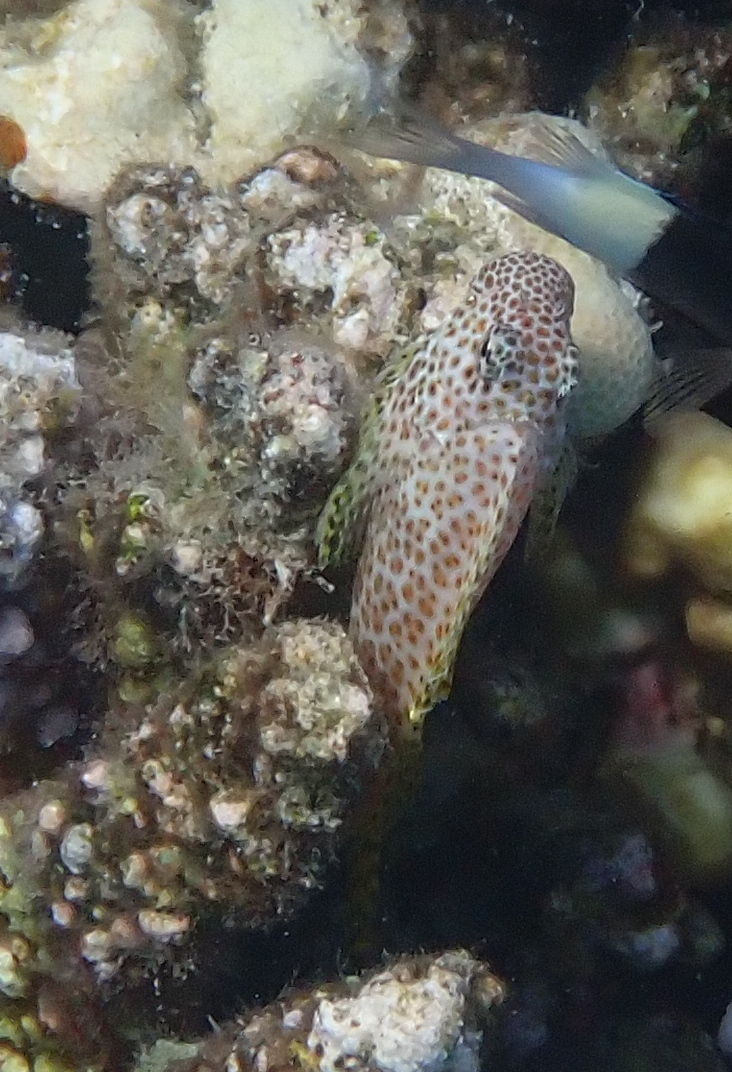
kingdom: Animalia
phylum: Chordata
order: Perciformes
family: Blenniidae
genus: Exallias
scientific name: Exallias brevis
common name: Leopard blenny
